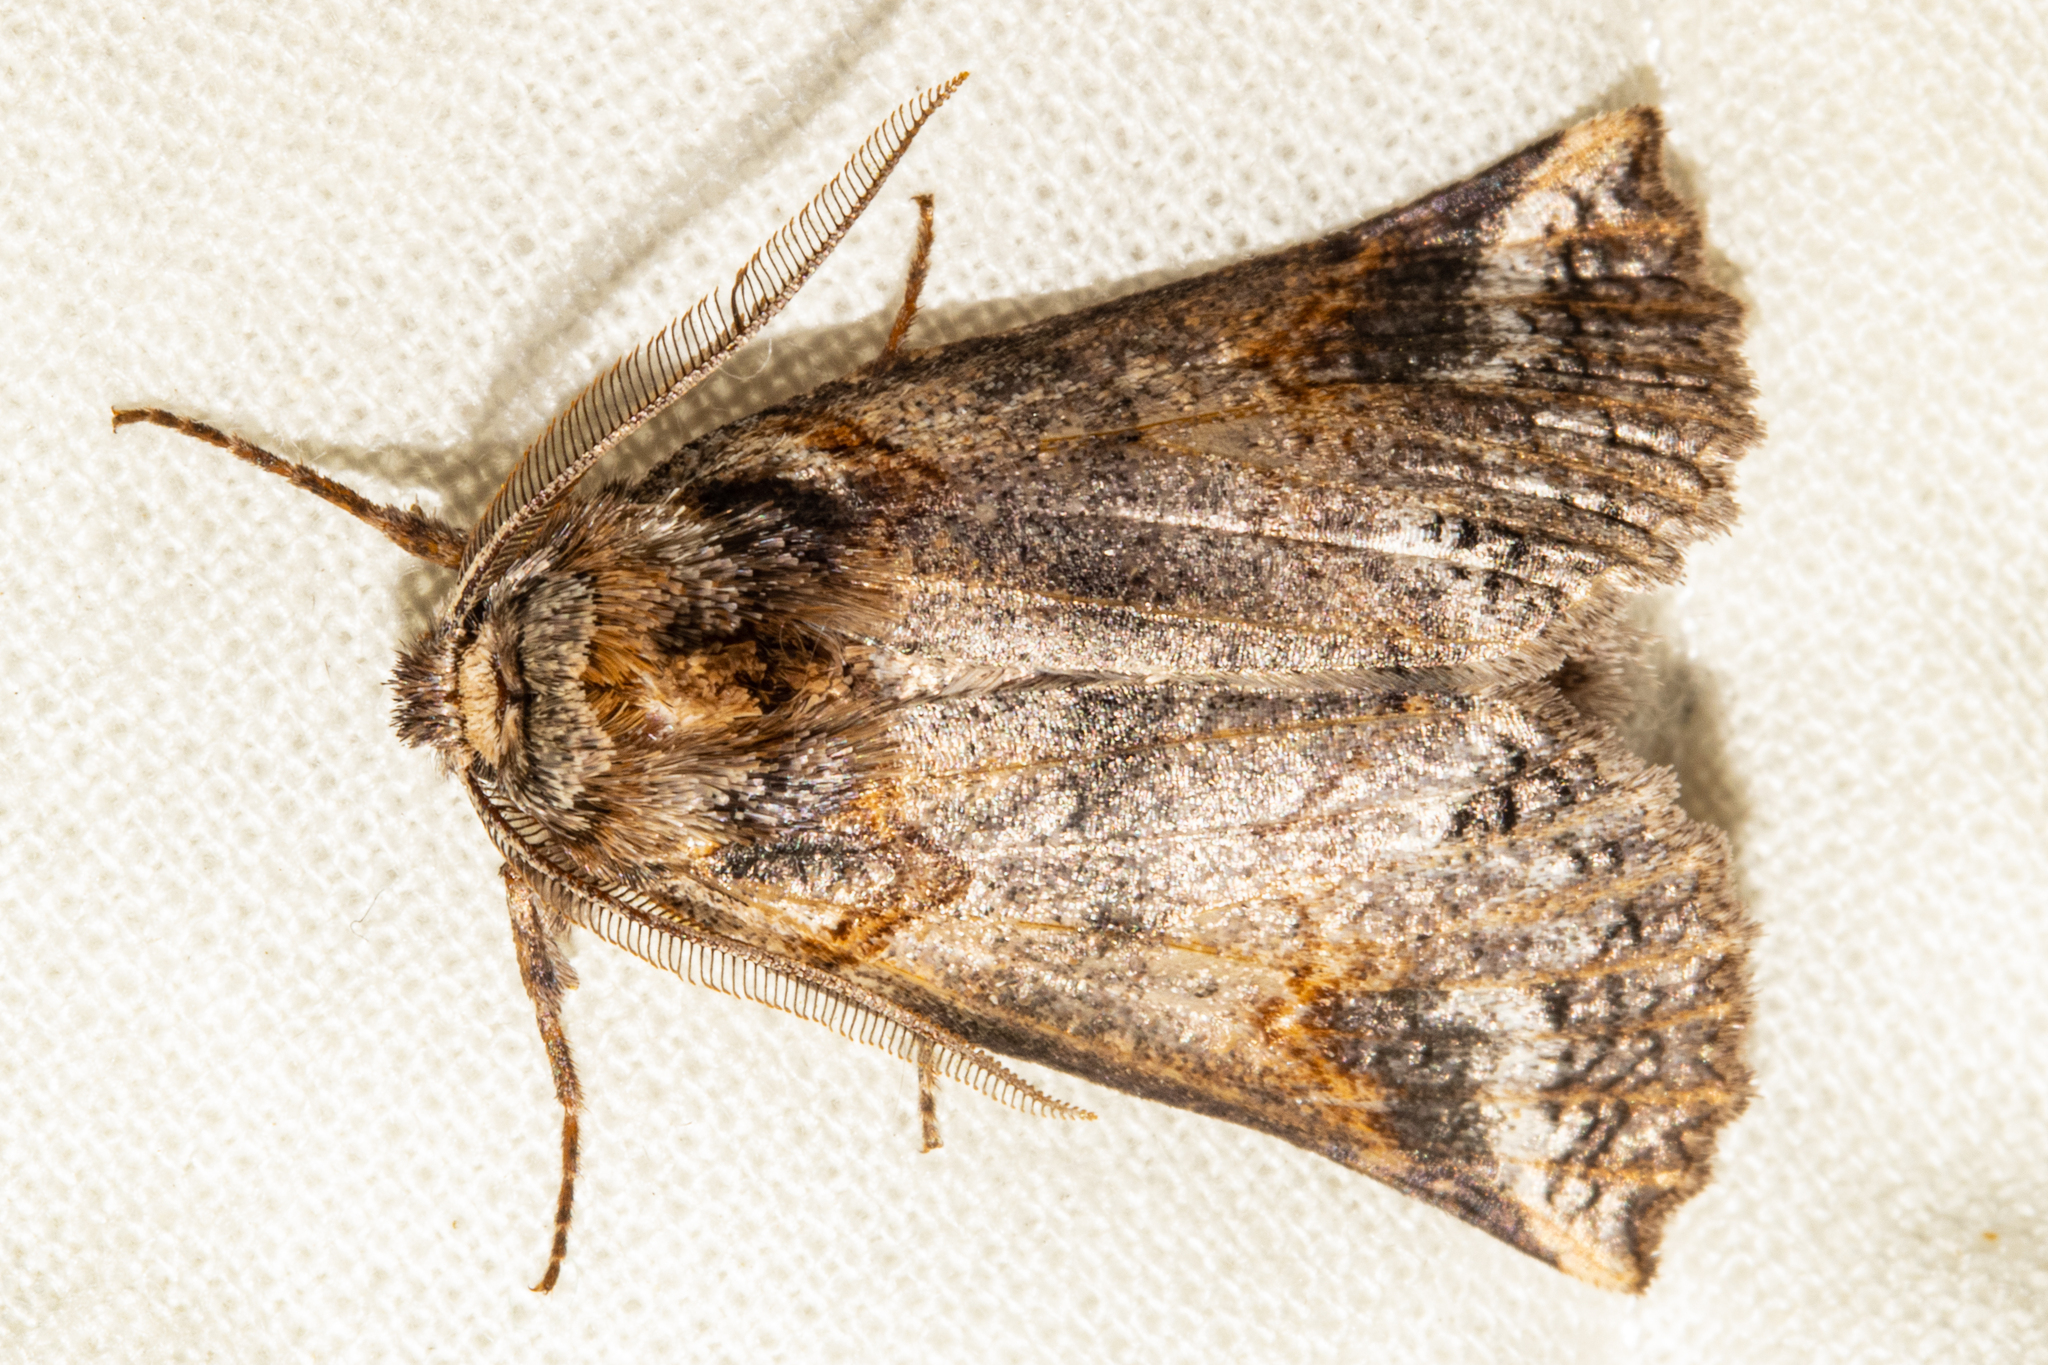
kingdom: Animalia
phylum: Arthropoda
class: Insecta
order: Lepidoptera
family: Geometridae
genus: Declana
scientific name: Declana
